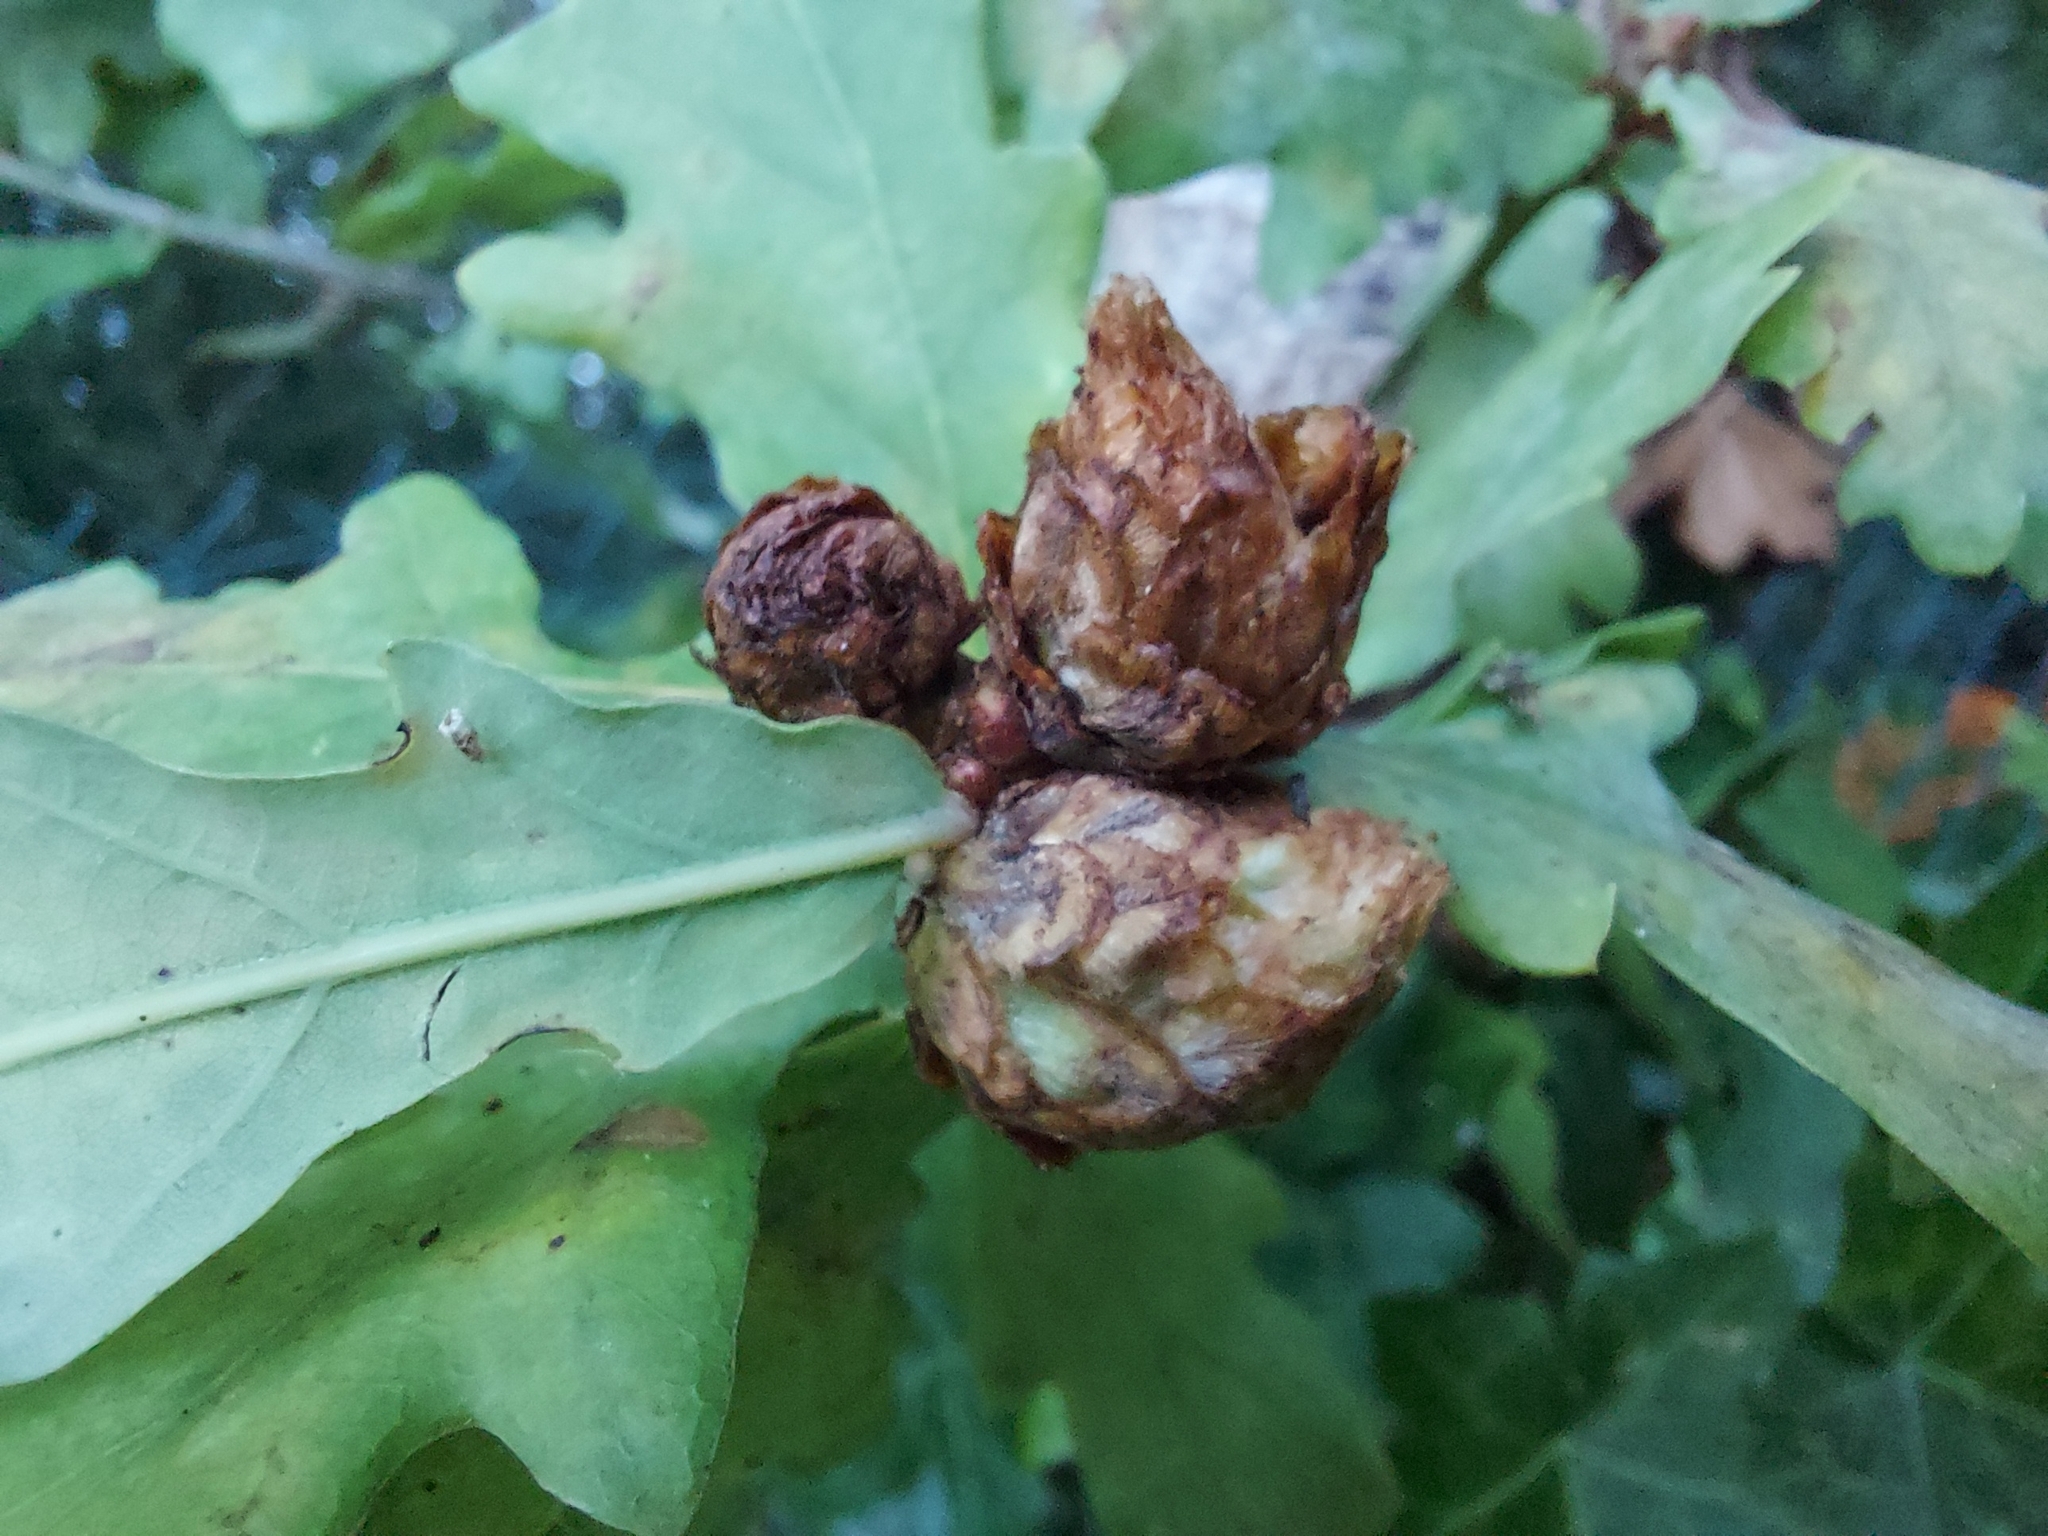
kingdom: Animalia
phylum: Arthropoda
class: Insecta
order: Hymenoptera
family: Cynipidae
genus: Andricus
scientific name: Andricus foecundatrix
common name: Artichoke gall
